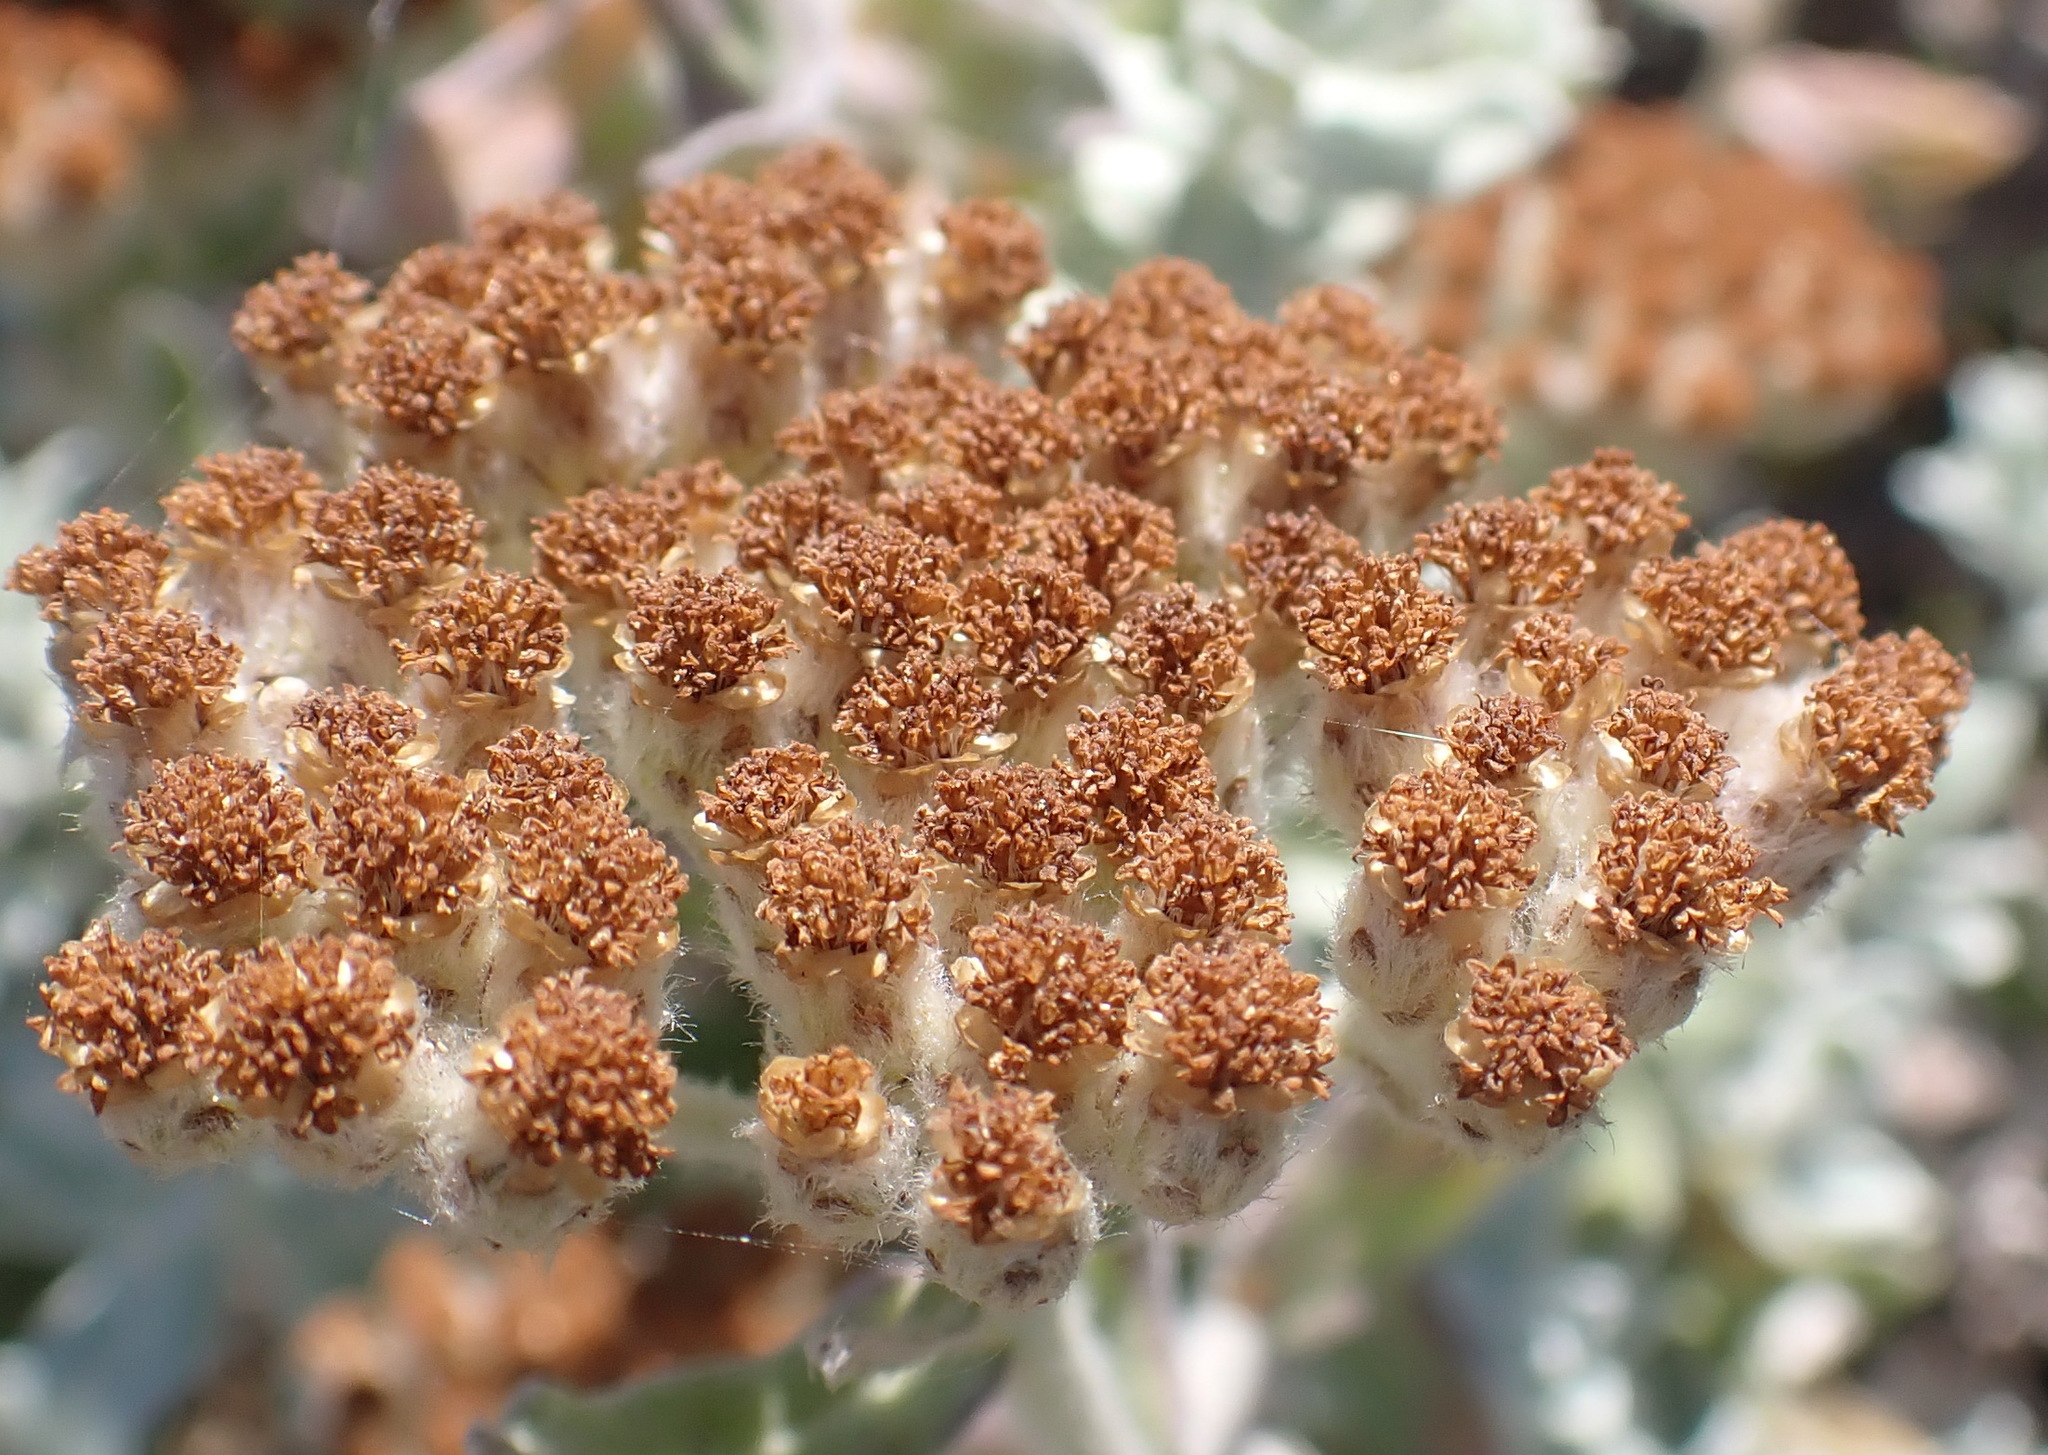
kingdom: Plantae
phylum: Tracheophyta
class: Magnoliopsida
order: Asterales
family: Asteraceae
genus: Helichrysum
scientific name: Helichrysum dasyanthum
